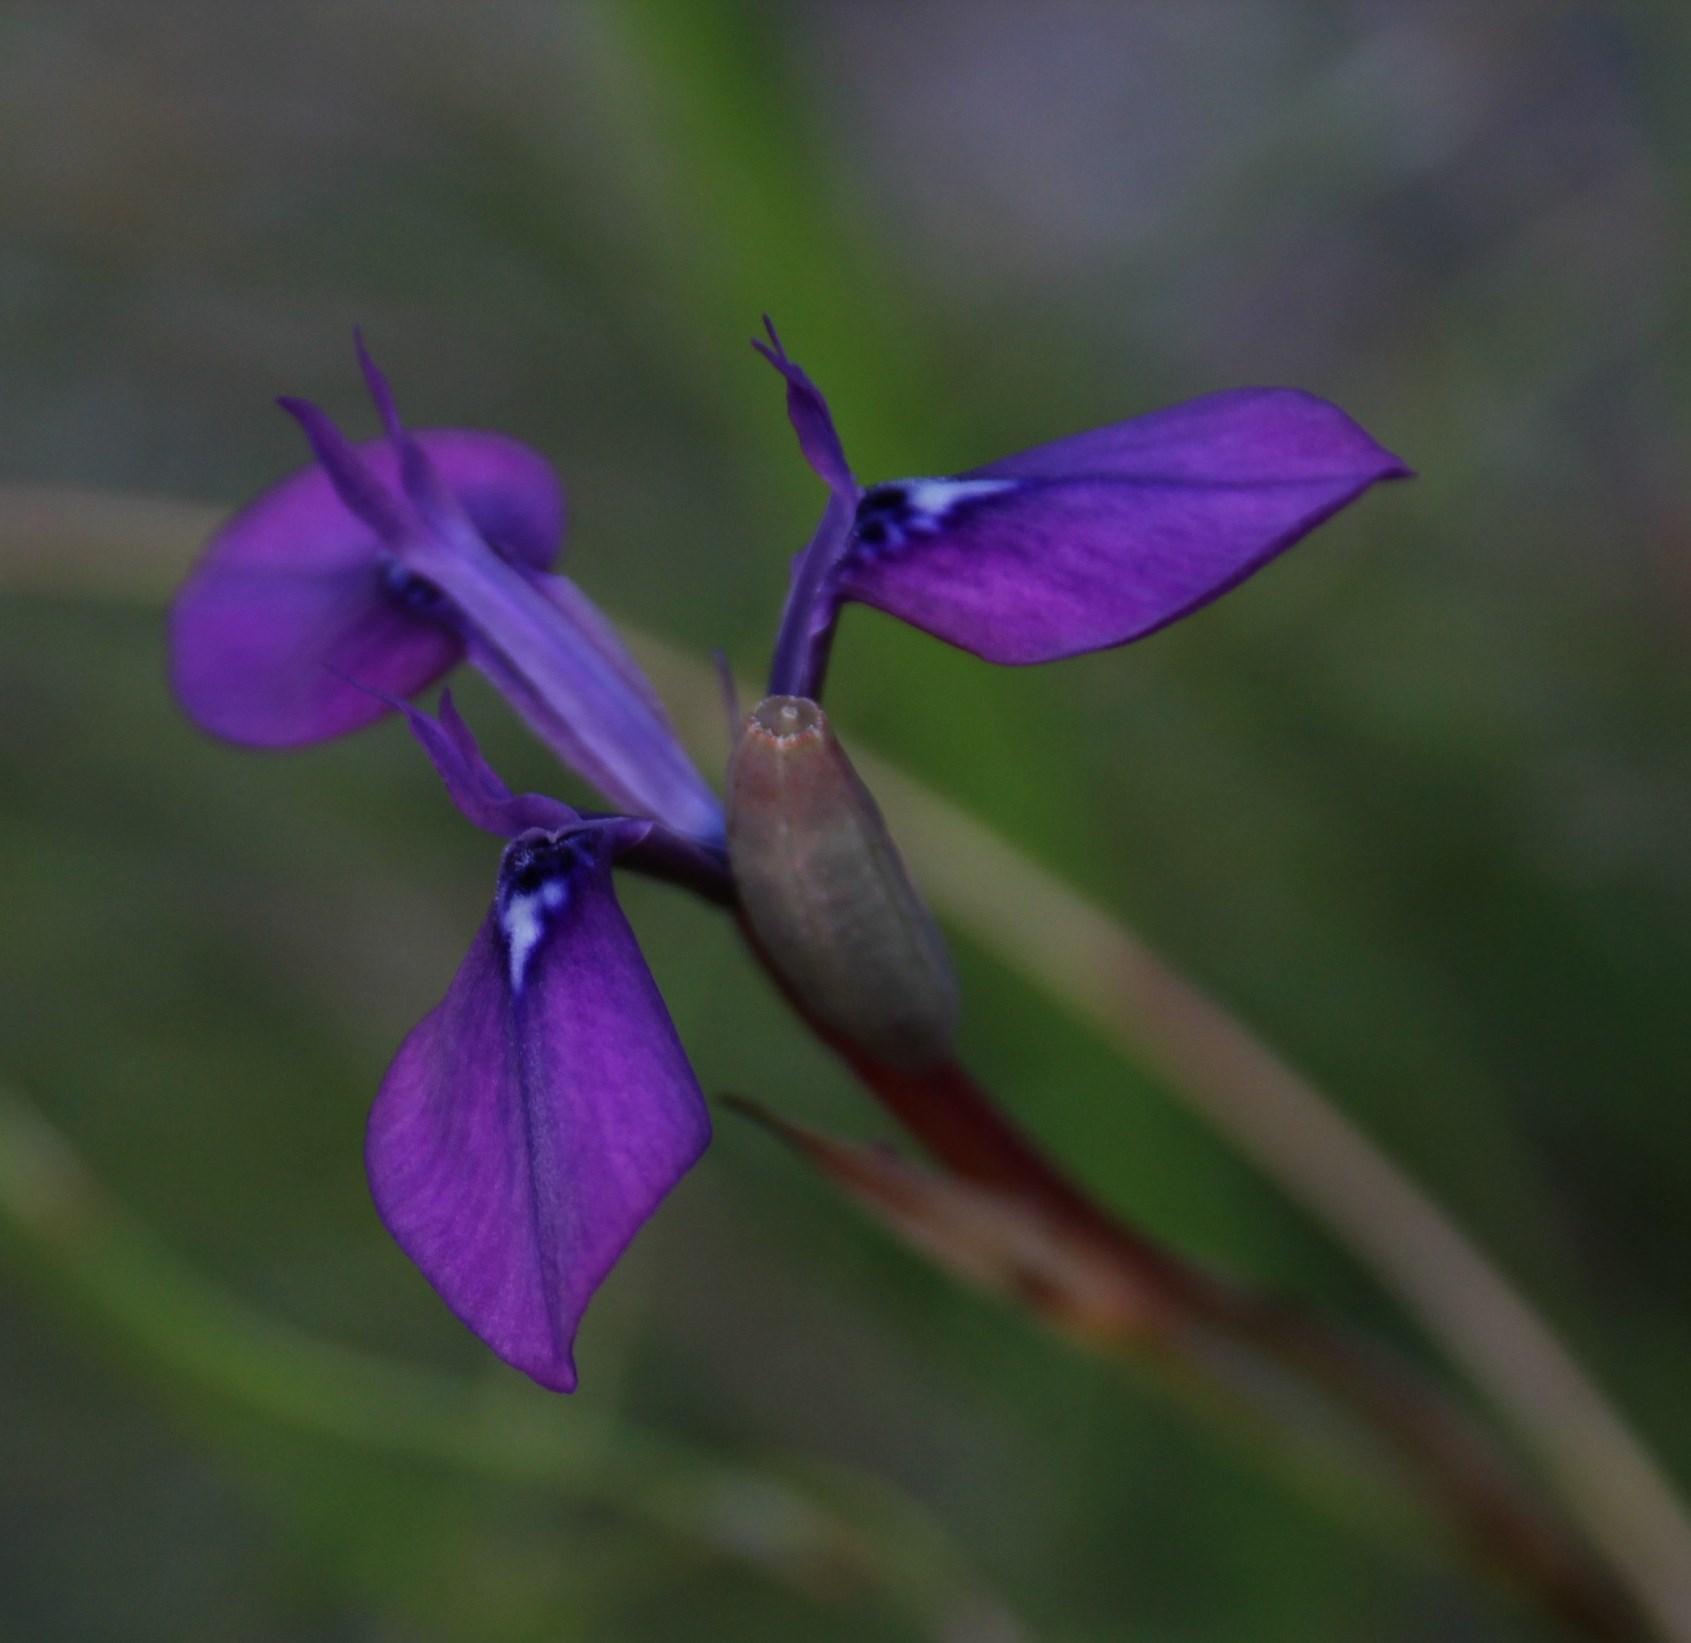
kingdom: Plantae
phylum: Tracheophyta
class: Liliopsida
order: Asparagales
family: Iridaceae
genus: Moraea
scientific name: Moraea tripetala
